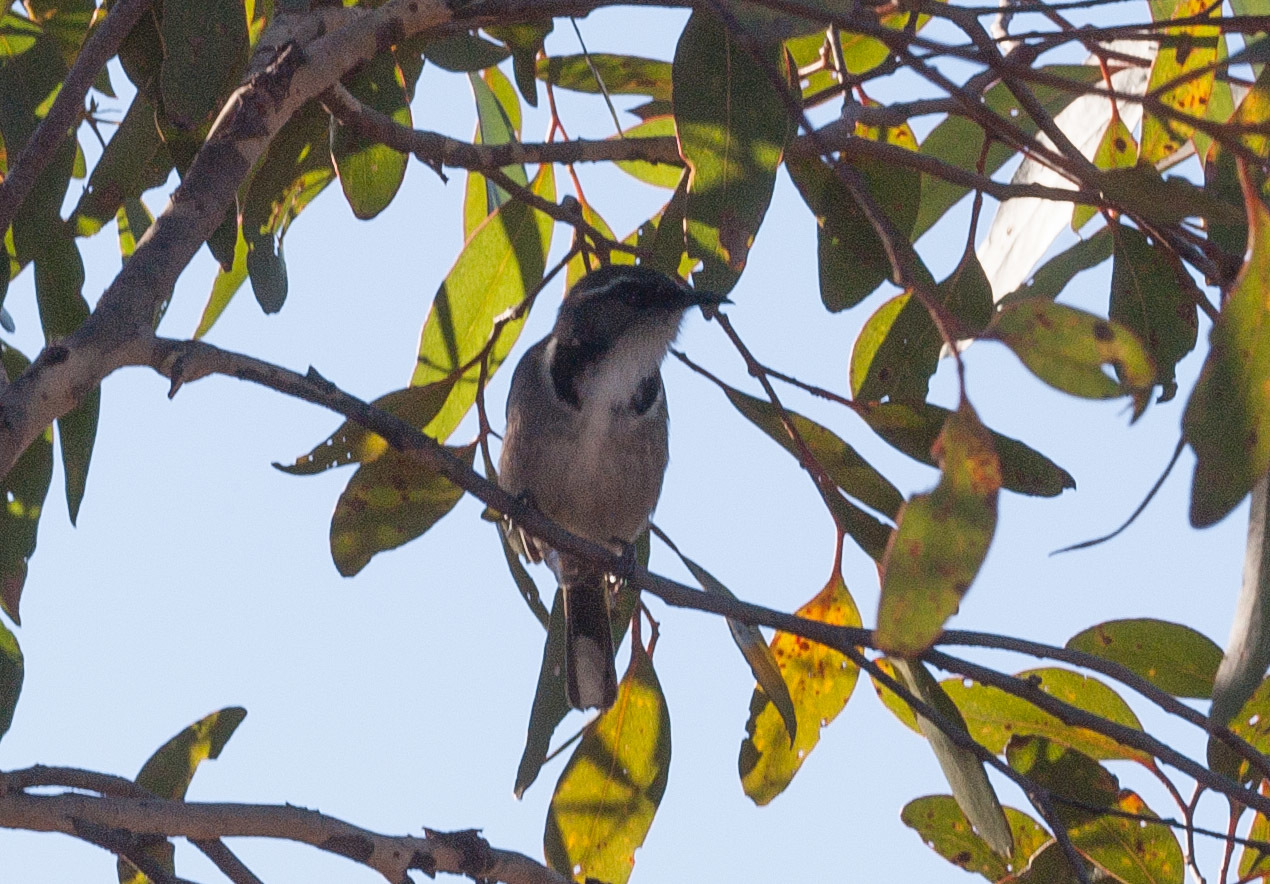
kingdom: Animalia
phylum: Chordata
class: Aves
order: Passeriformes
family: Meliphagidae
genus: Phylidonyris
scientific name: Phylidonyris pyrrhopterus
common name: Crescent honeyeater
